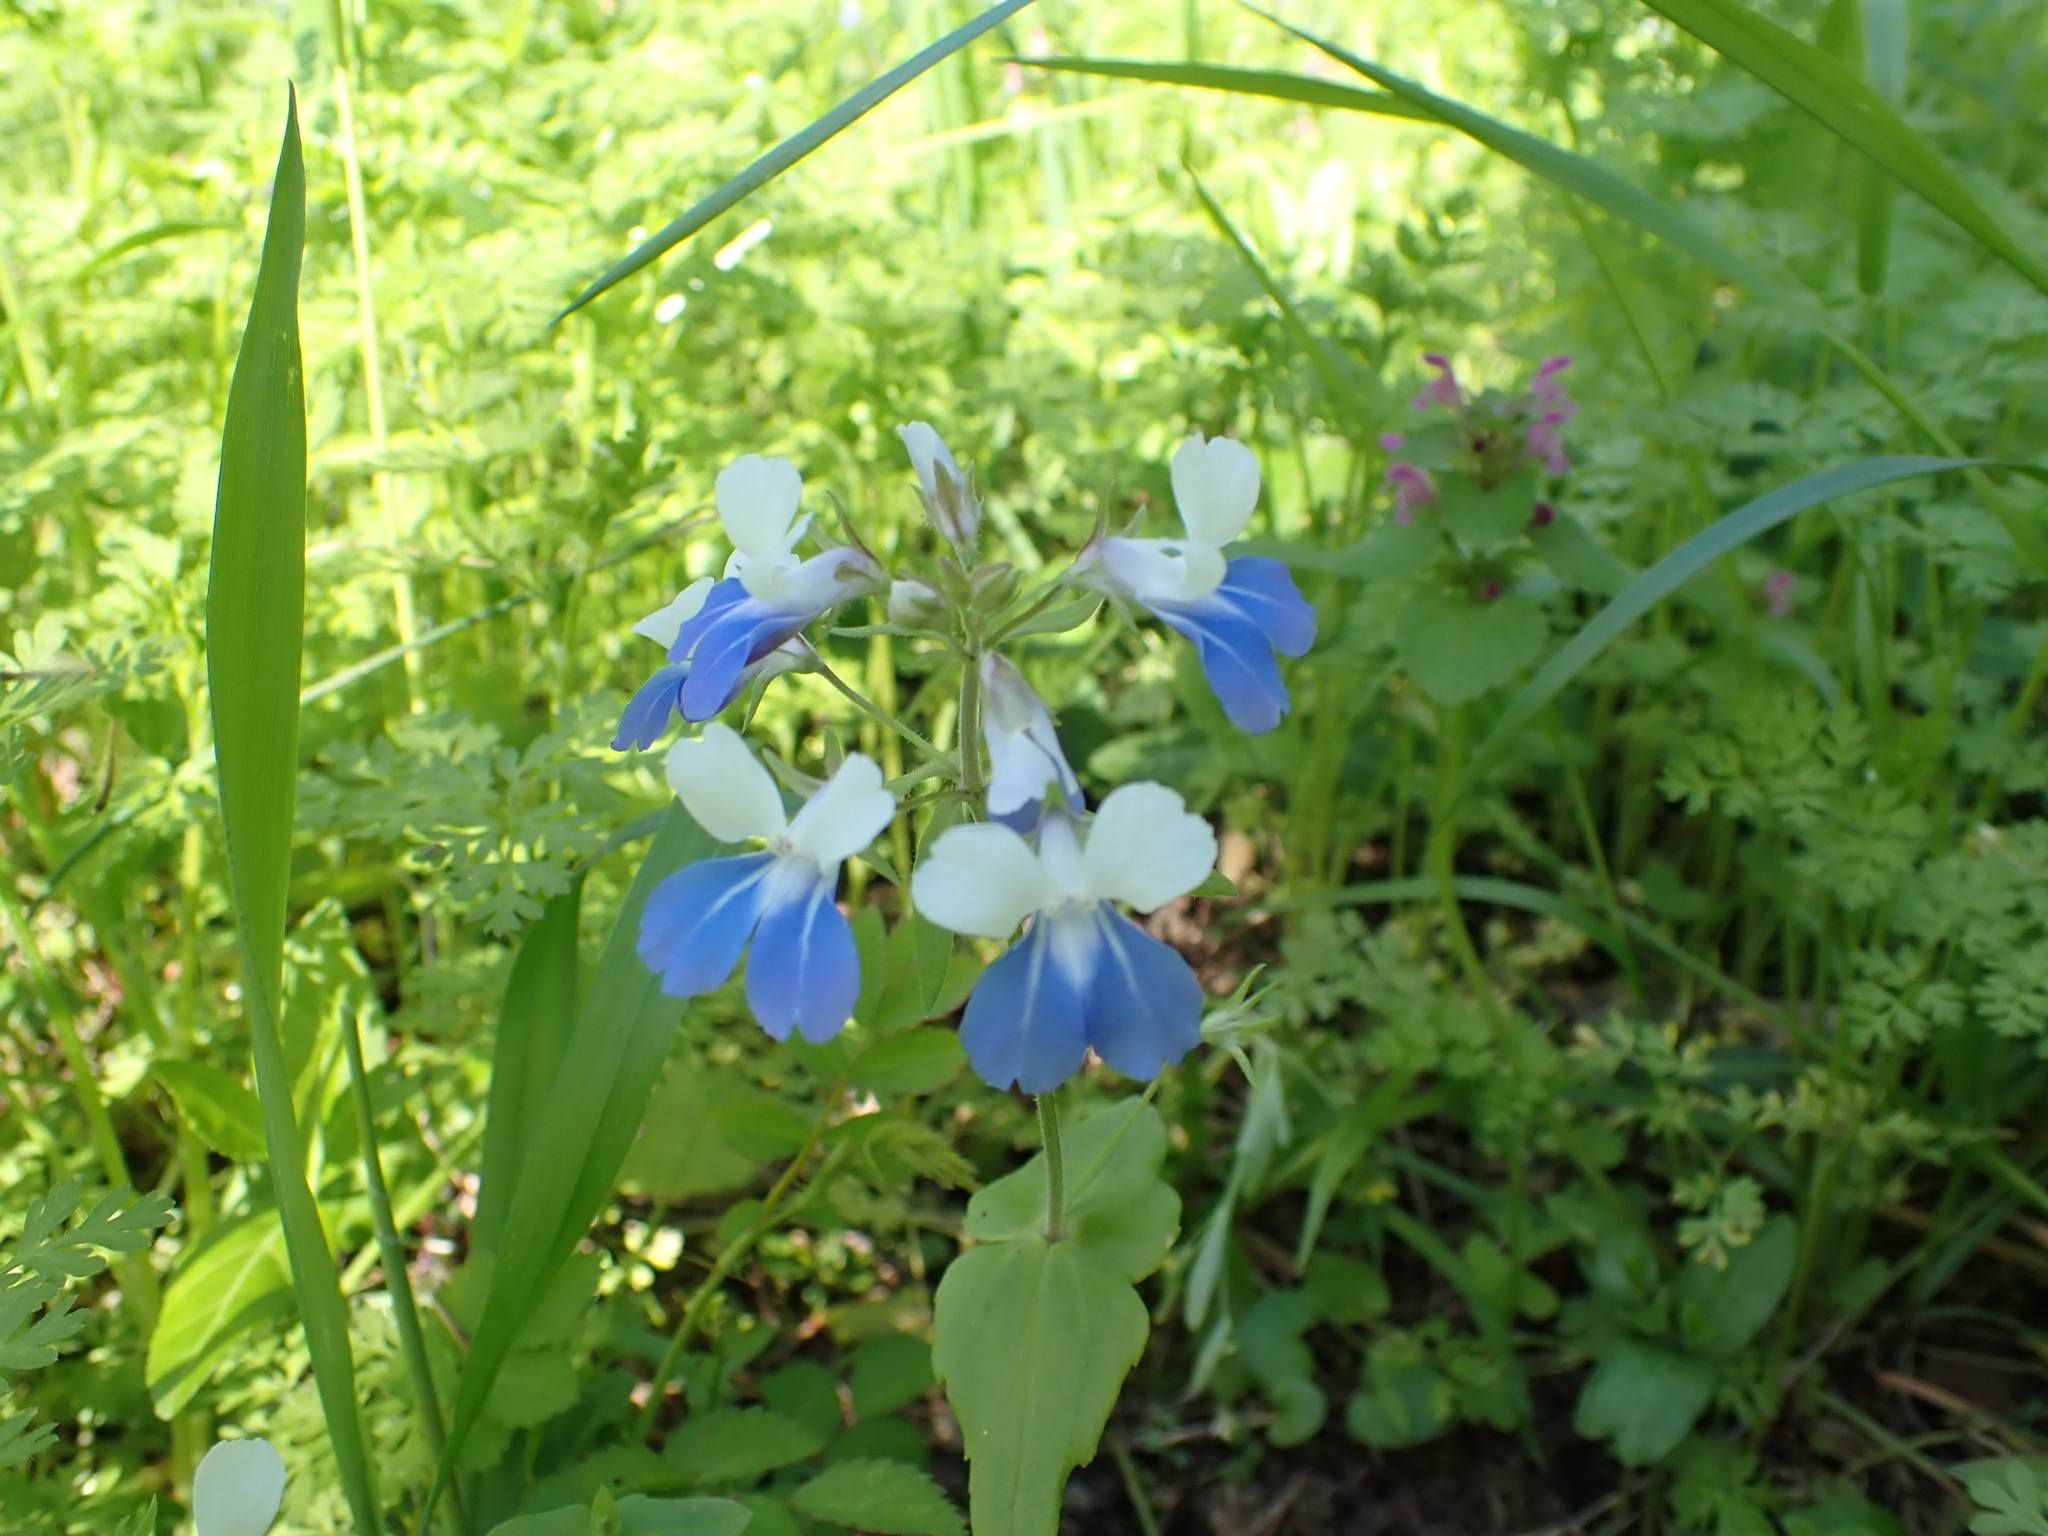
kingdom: Plantae
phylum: Tracheophyta
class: Magnoliopsida
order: Lamiales
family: Plantaginaceae
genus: Collinsia
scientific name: Collinsia verna
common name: Broad-leaved collinsia
